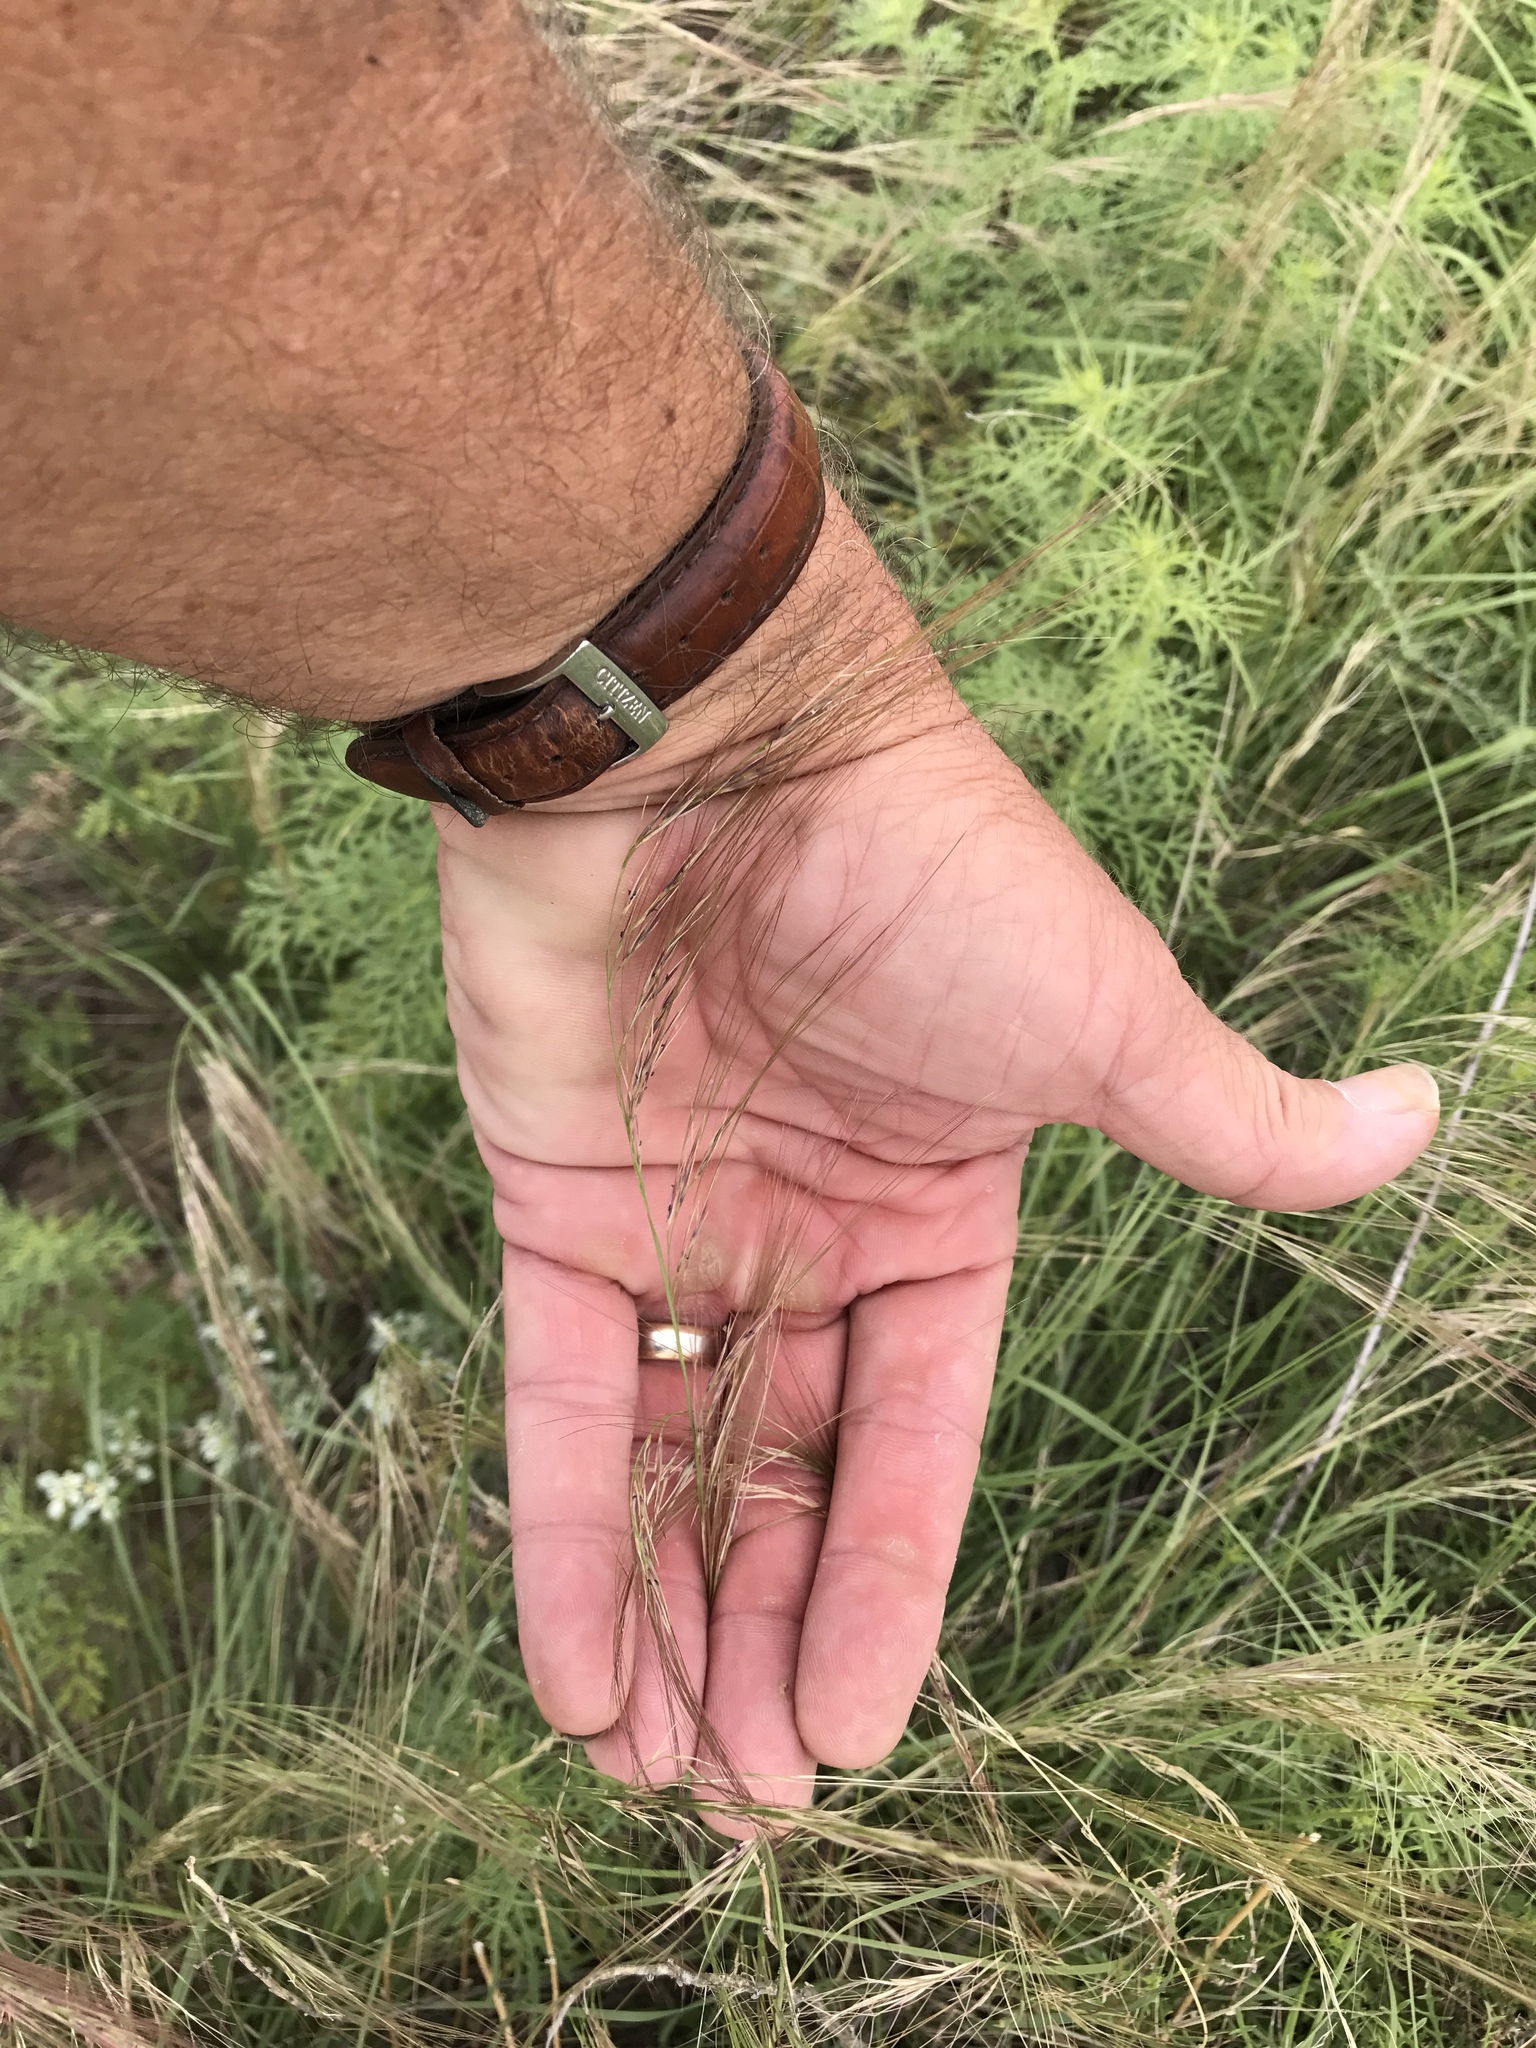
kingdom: Plantae
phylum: Tracheophyta
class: Liliopsida
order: Poales
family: Poaceae
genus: Aristida
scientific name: Aristida purpurea
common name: Purple threeawn
